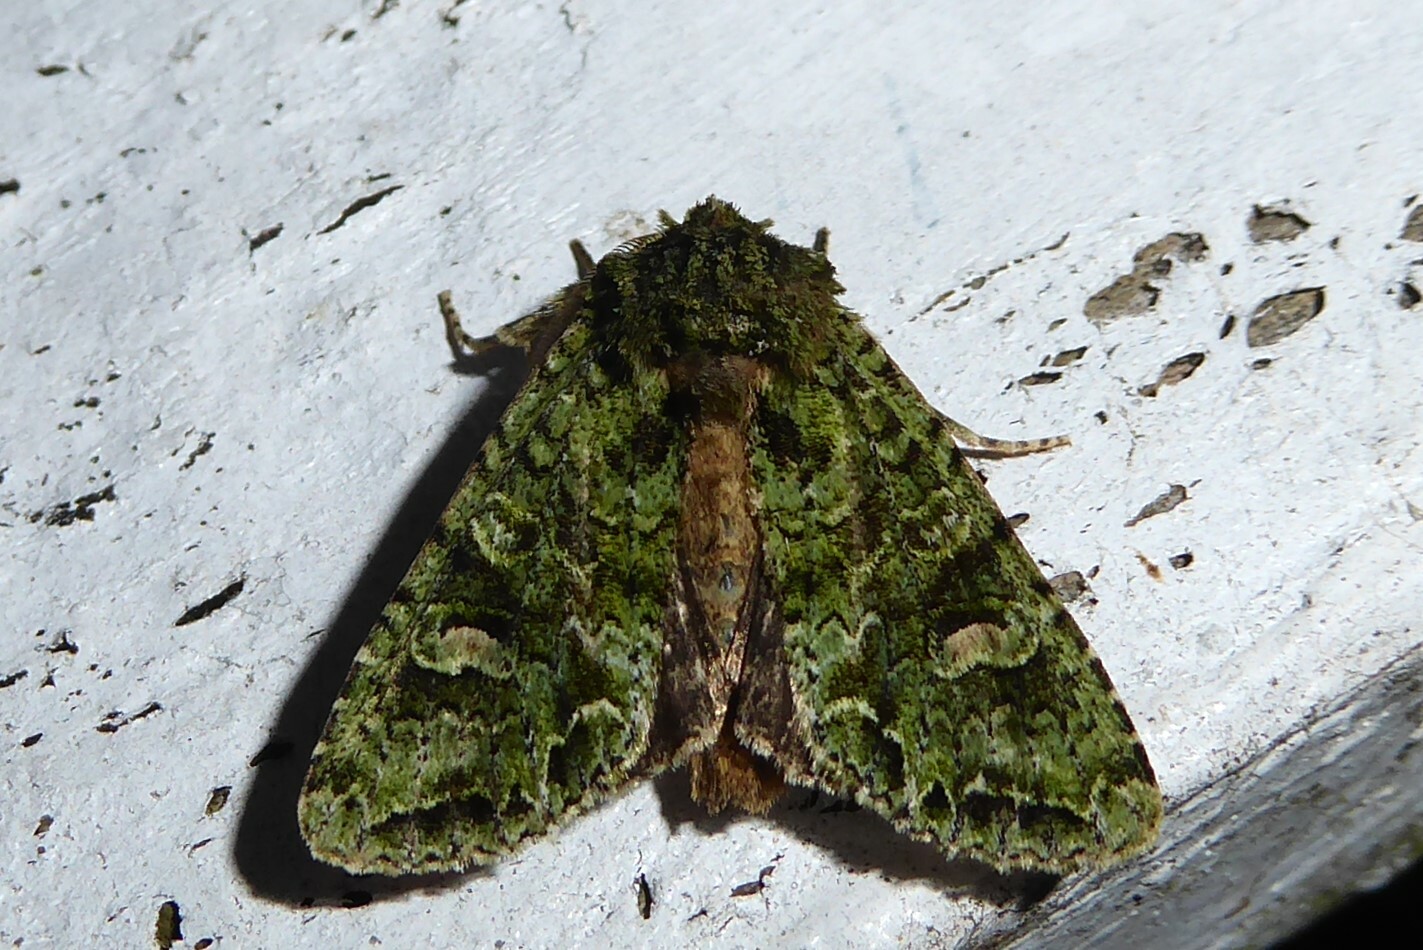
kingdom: Animalia
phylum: Arthropoda
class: Insecta
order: Lepidoptera
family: Noctuidae
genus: Ichneutica
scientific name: Ichneutica
